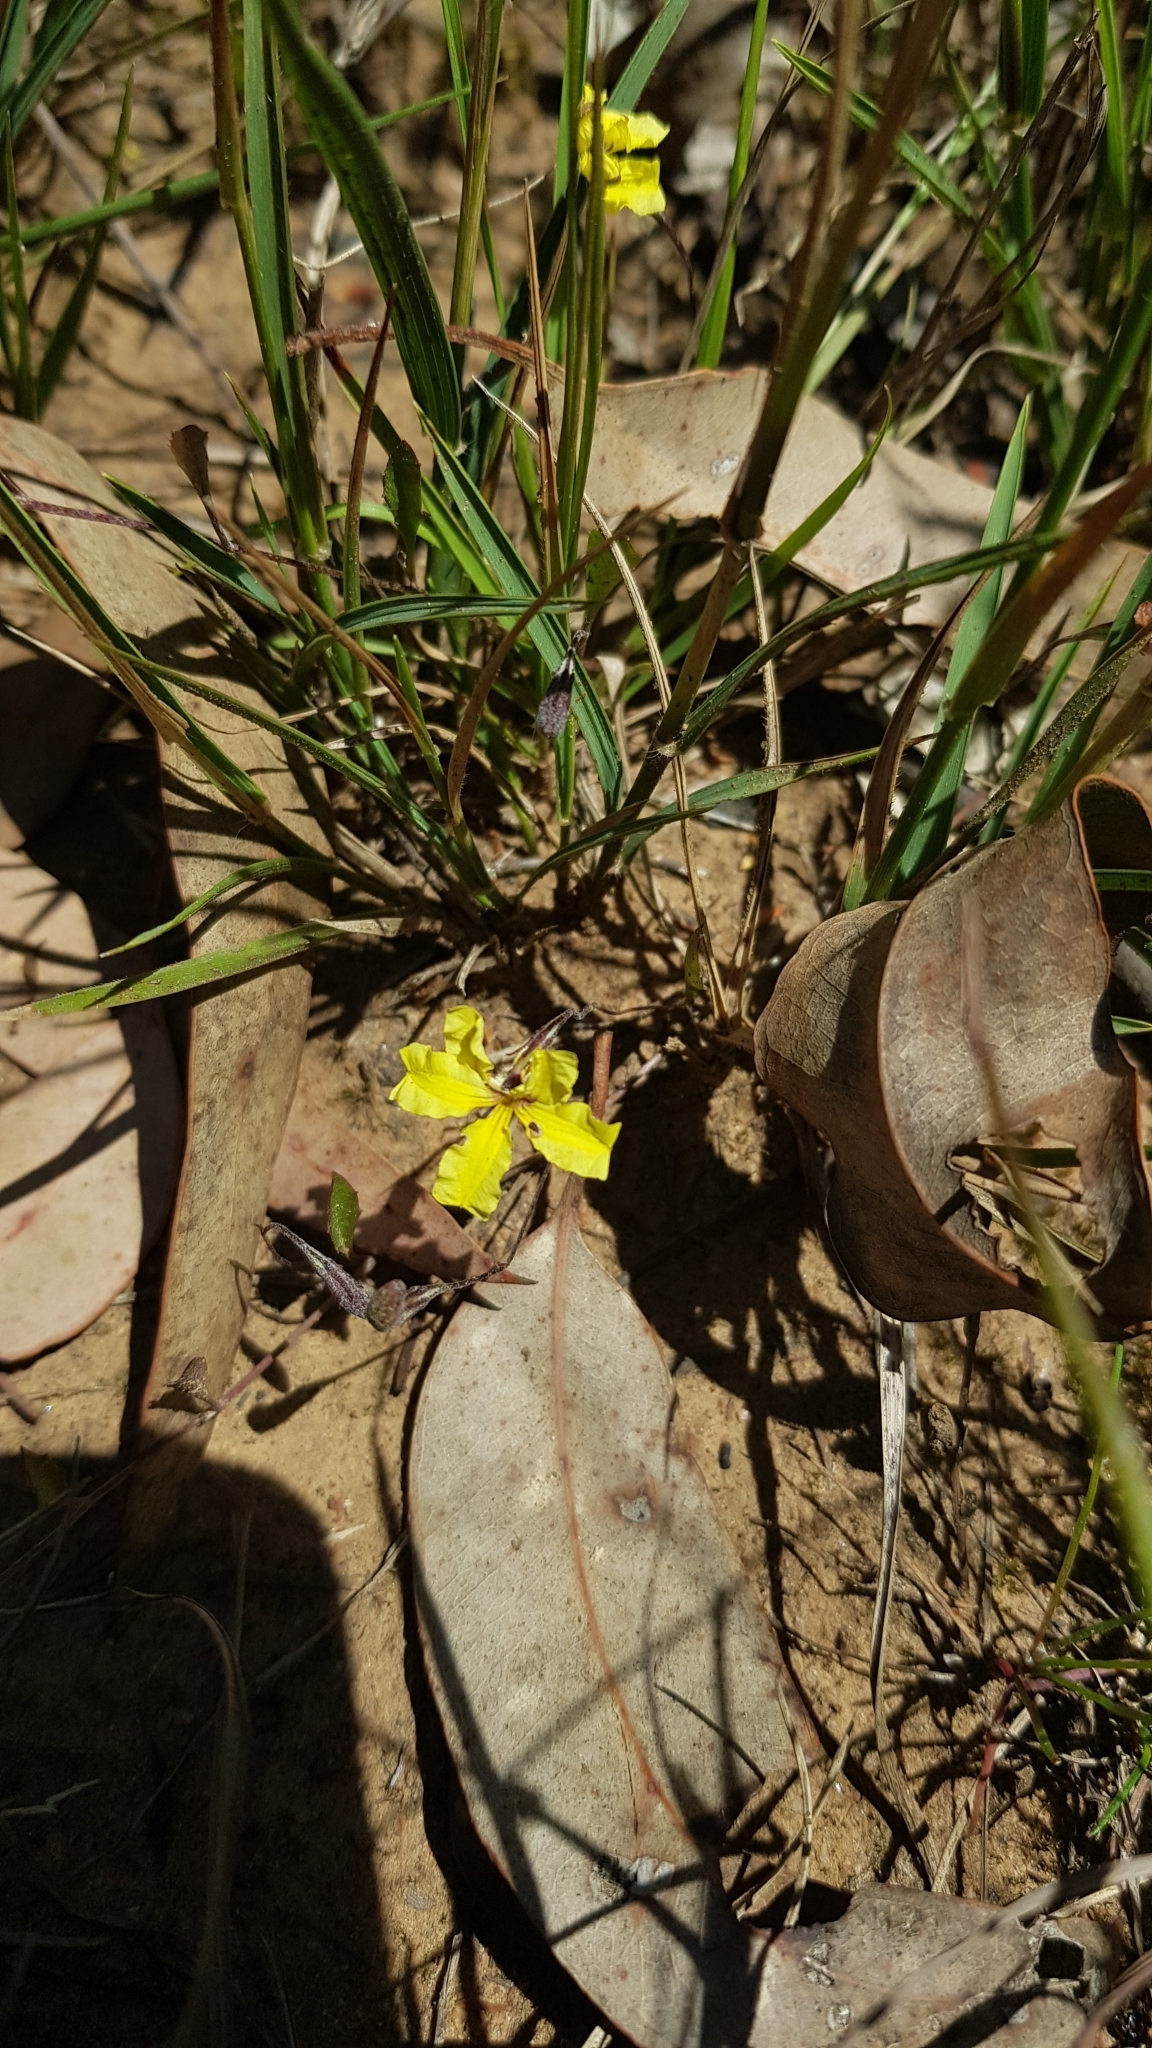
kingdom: Plantae
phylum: Tracheophyta
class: Magnoliopsida
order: Asterales
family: Goodeniaceae
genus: Goodenia
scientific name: Goodenia hederacea
